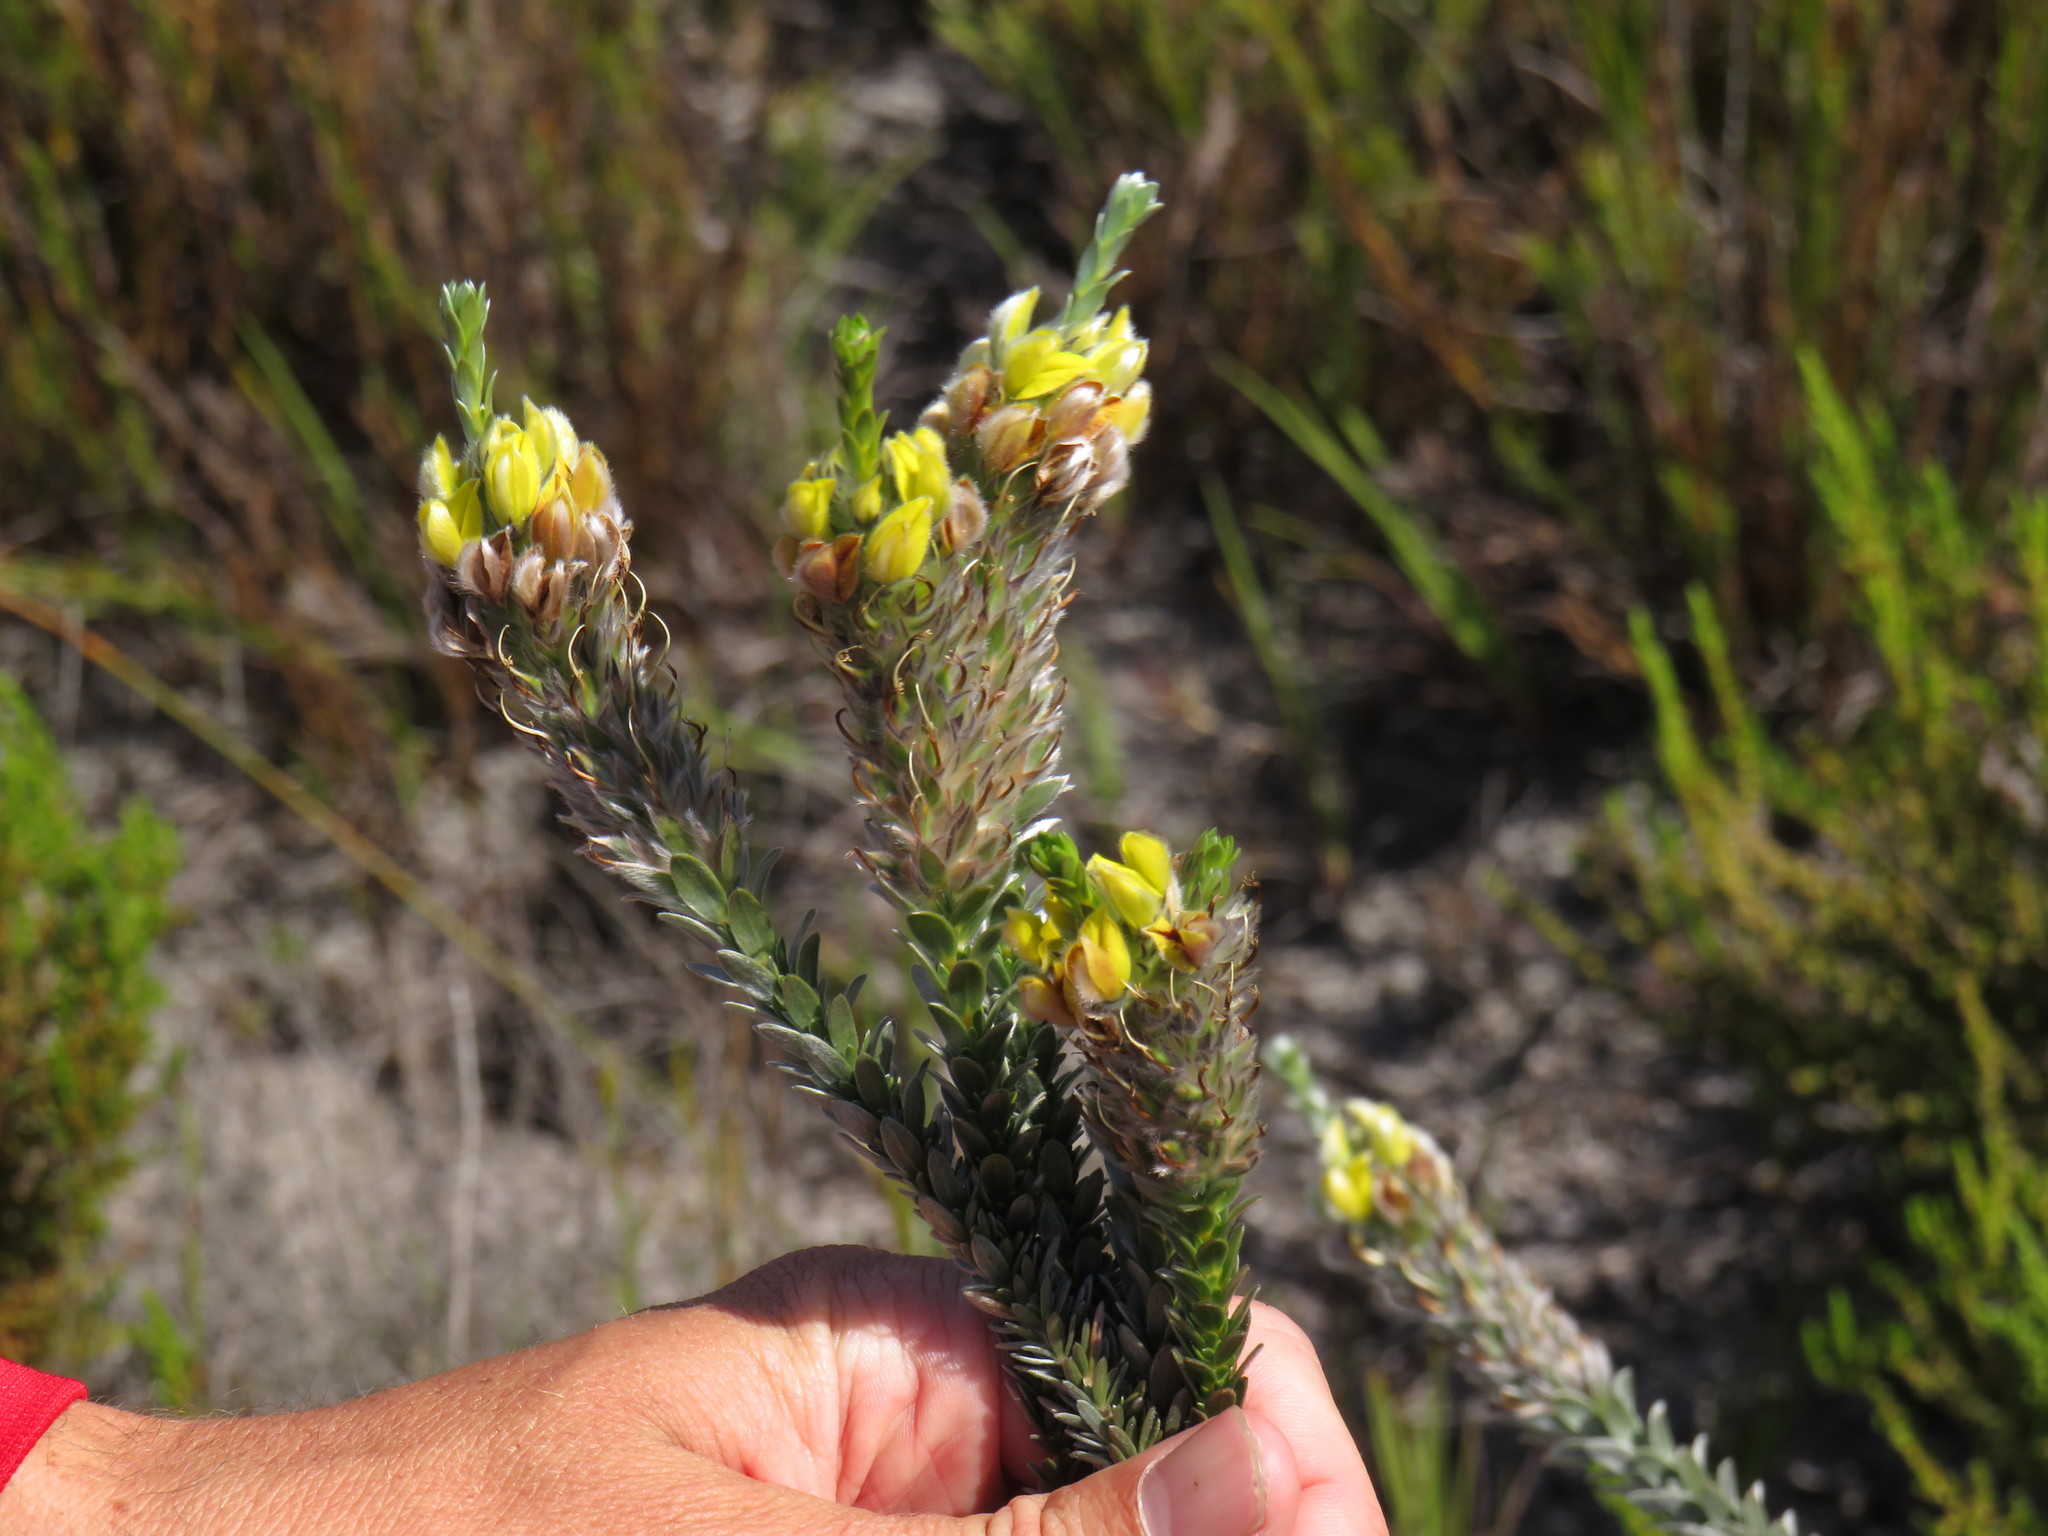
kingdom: Plantae
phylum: Tracheophyta
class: Magnoliopsida
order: Fabales
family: Fabaceae
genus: Aspalathus
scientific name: Aspalathus sericea
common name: Silky pea
